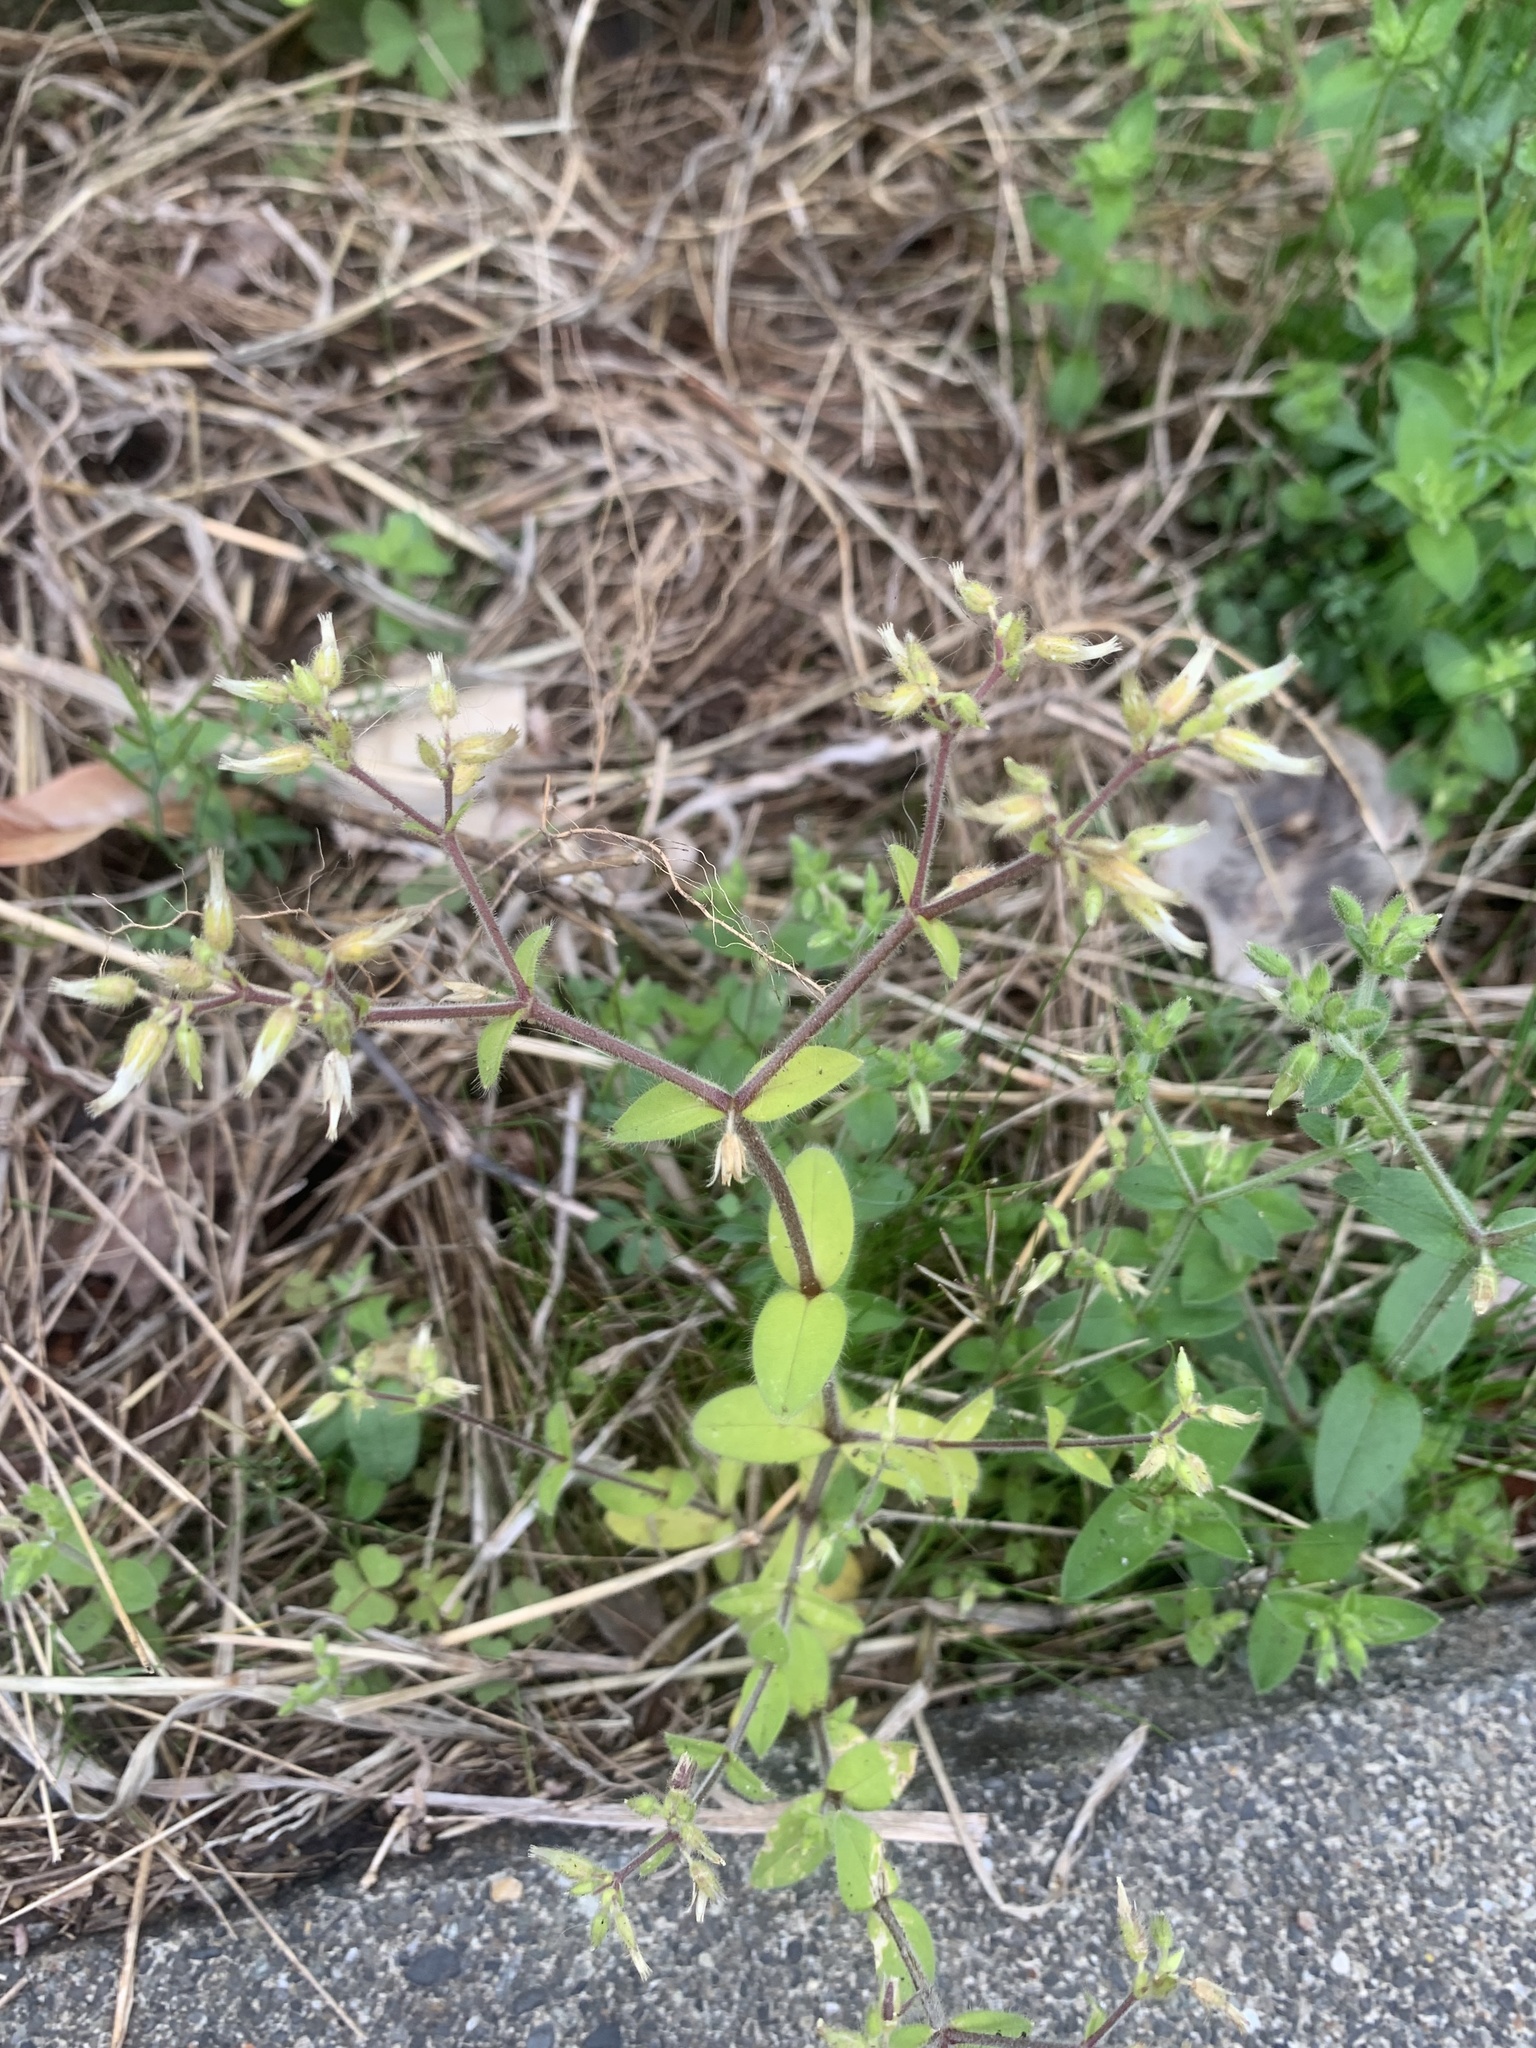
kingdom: Plantae
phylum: Tracheophyta
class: Magnoliopsida
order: Caryophyllales
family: Caryophyllaceae
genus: Cerastium
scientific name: Cerastium glomeratum
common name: Sticky chickweed
